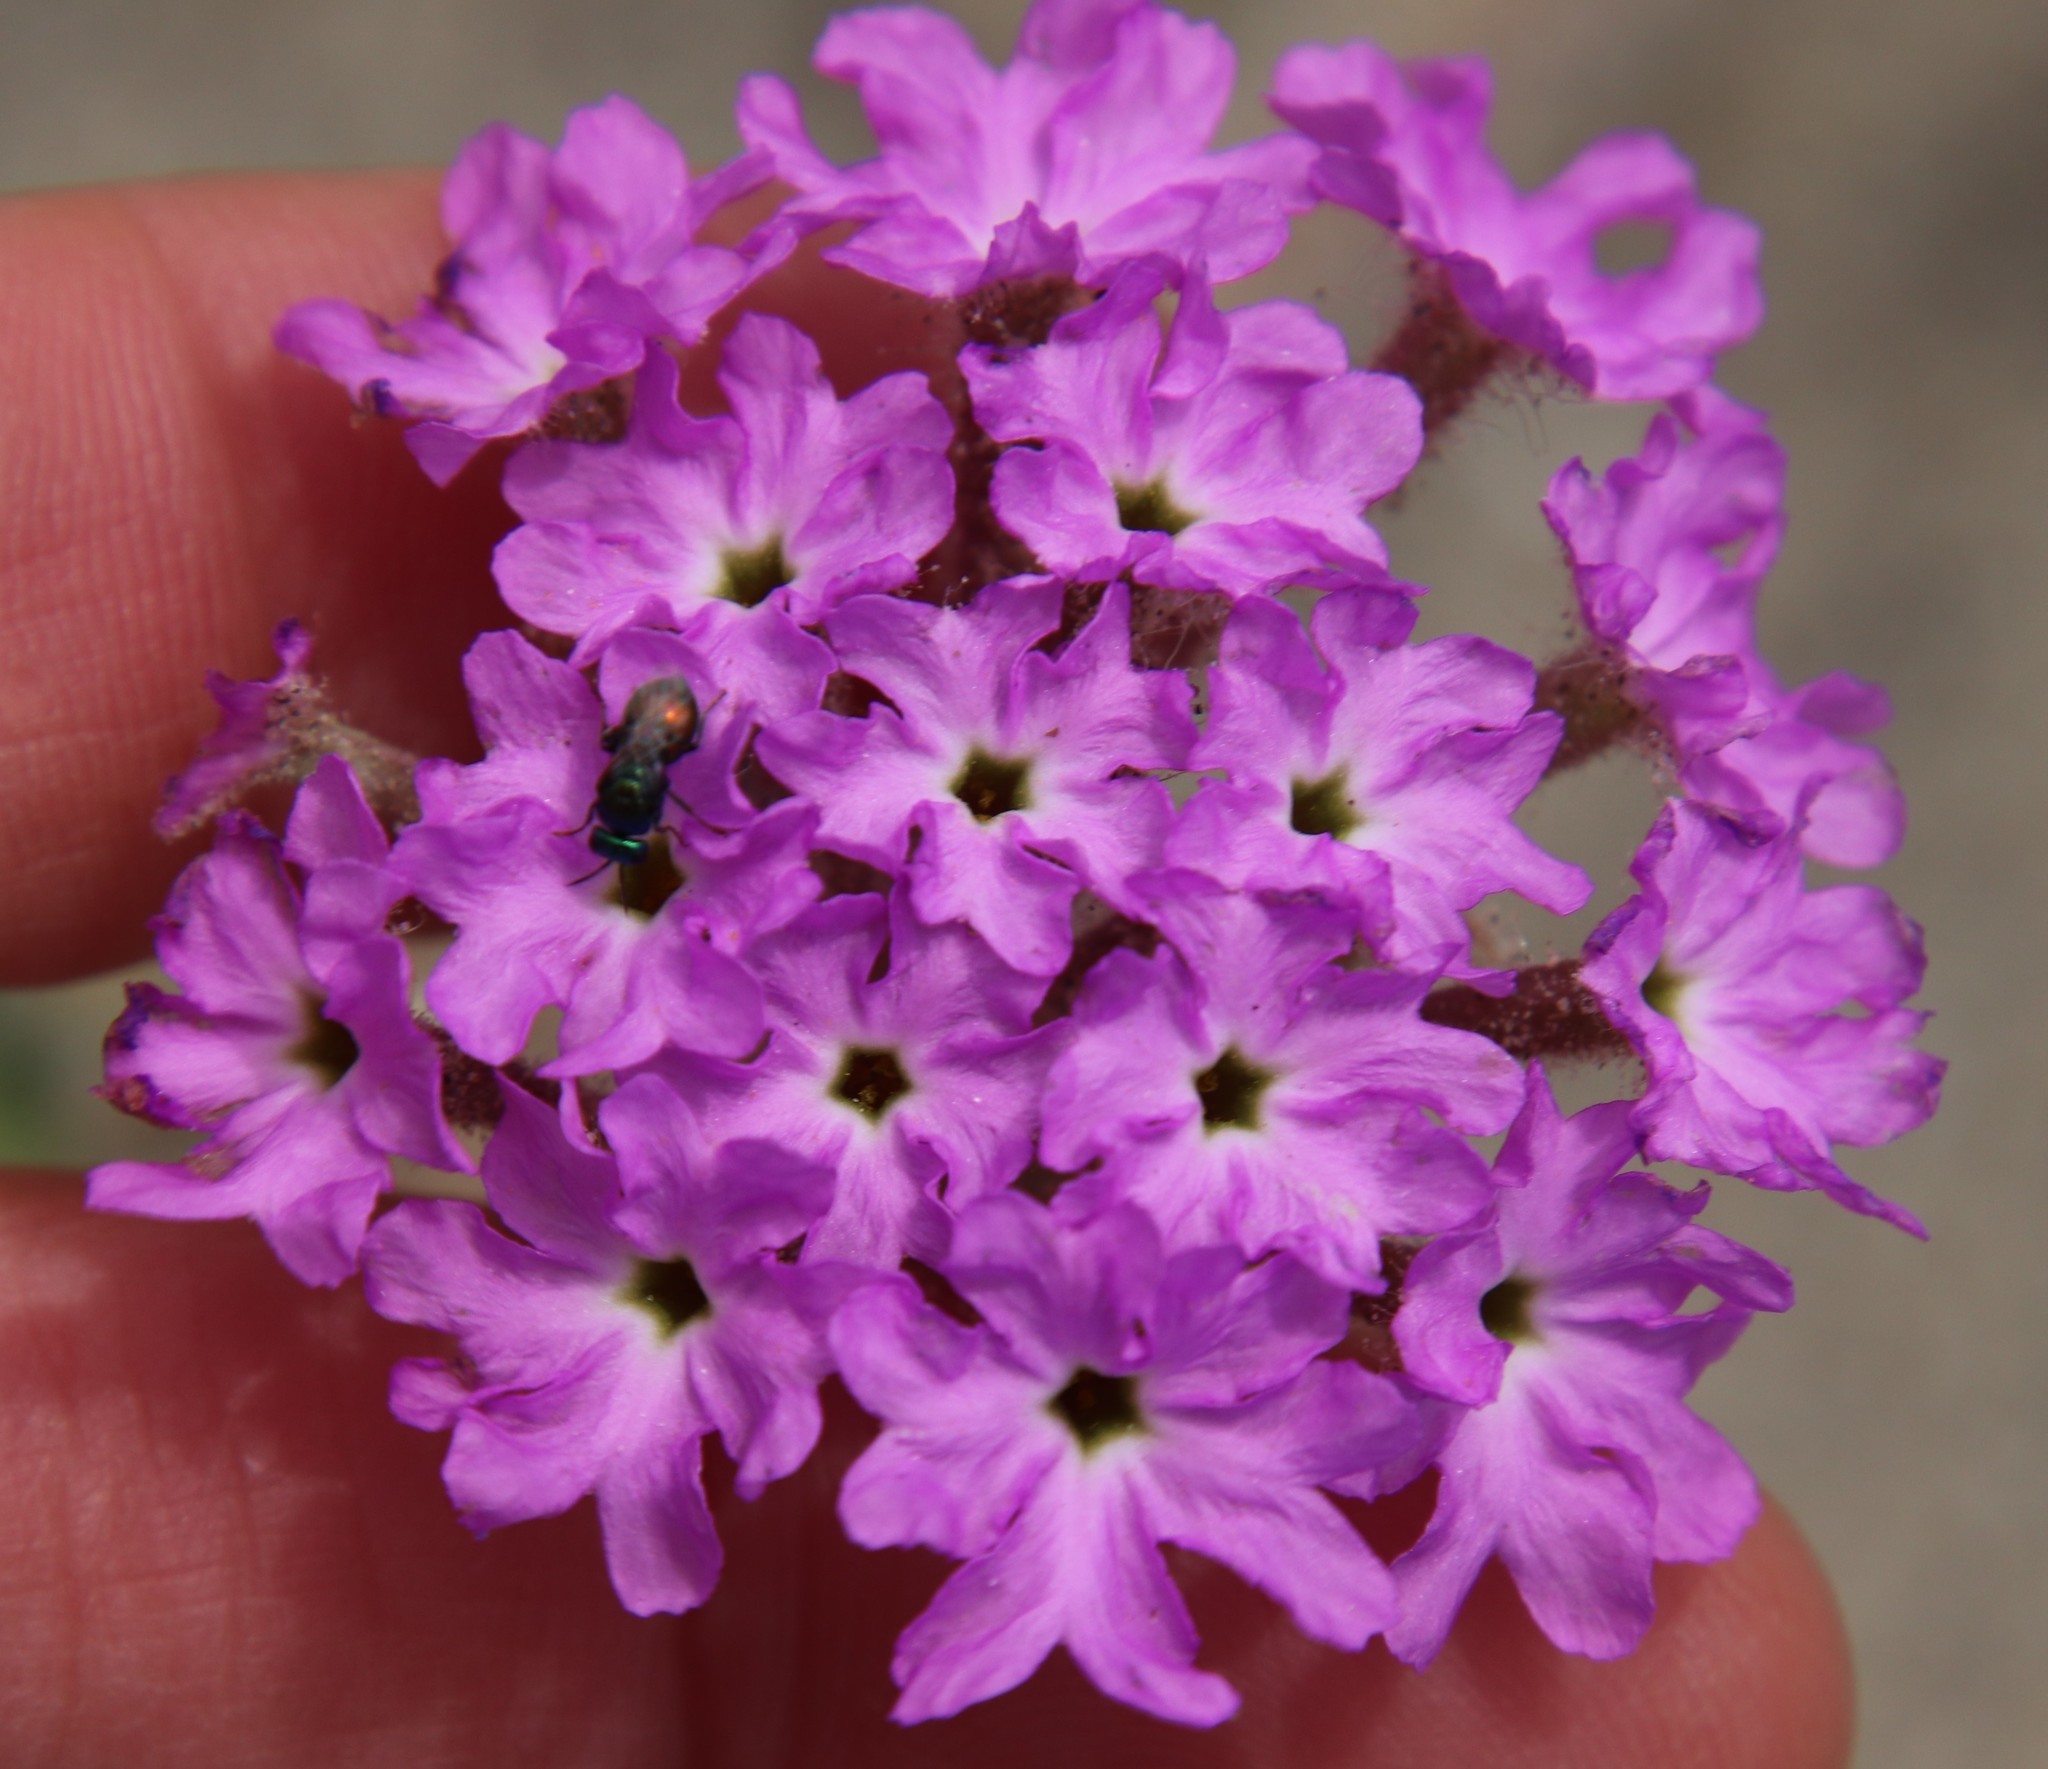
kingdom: Plantae
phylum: Tracheophyta
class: Magnoliopsida
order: Caryophyllales
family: Nyctaginaceae
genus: Abronia
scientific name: Abronia villosa
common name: Desert sand-verbena
